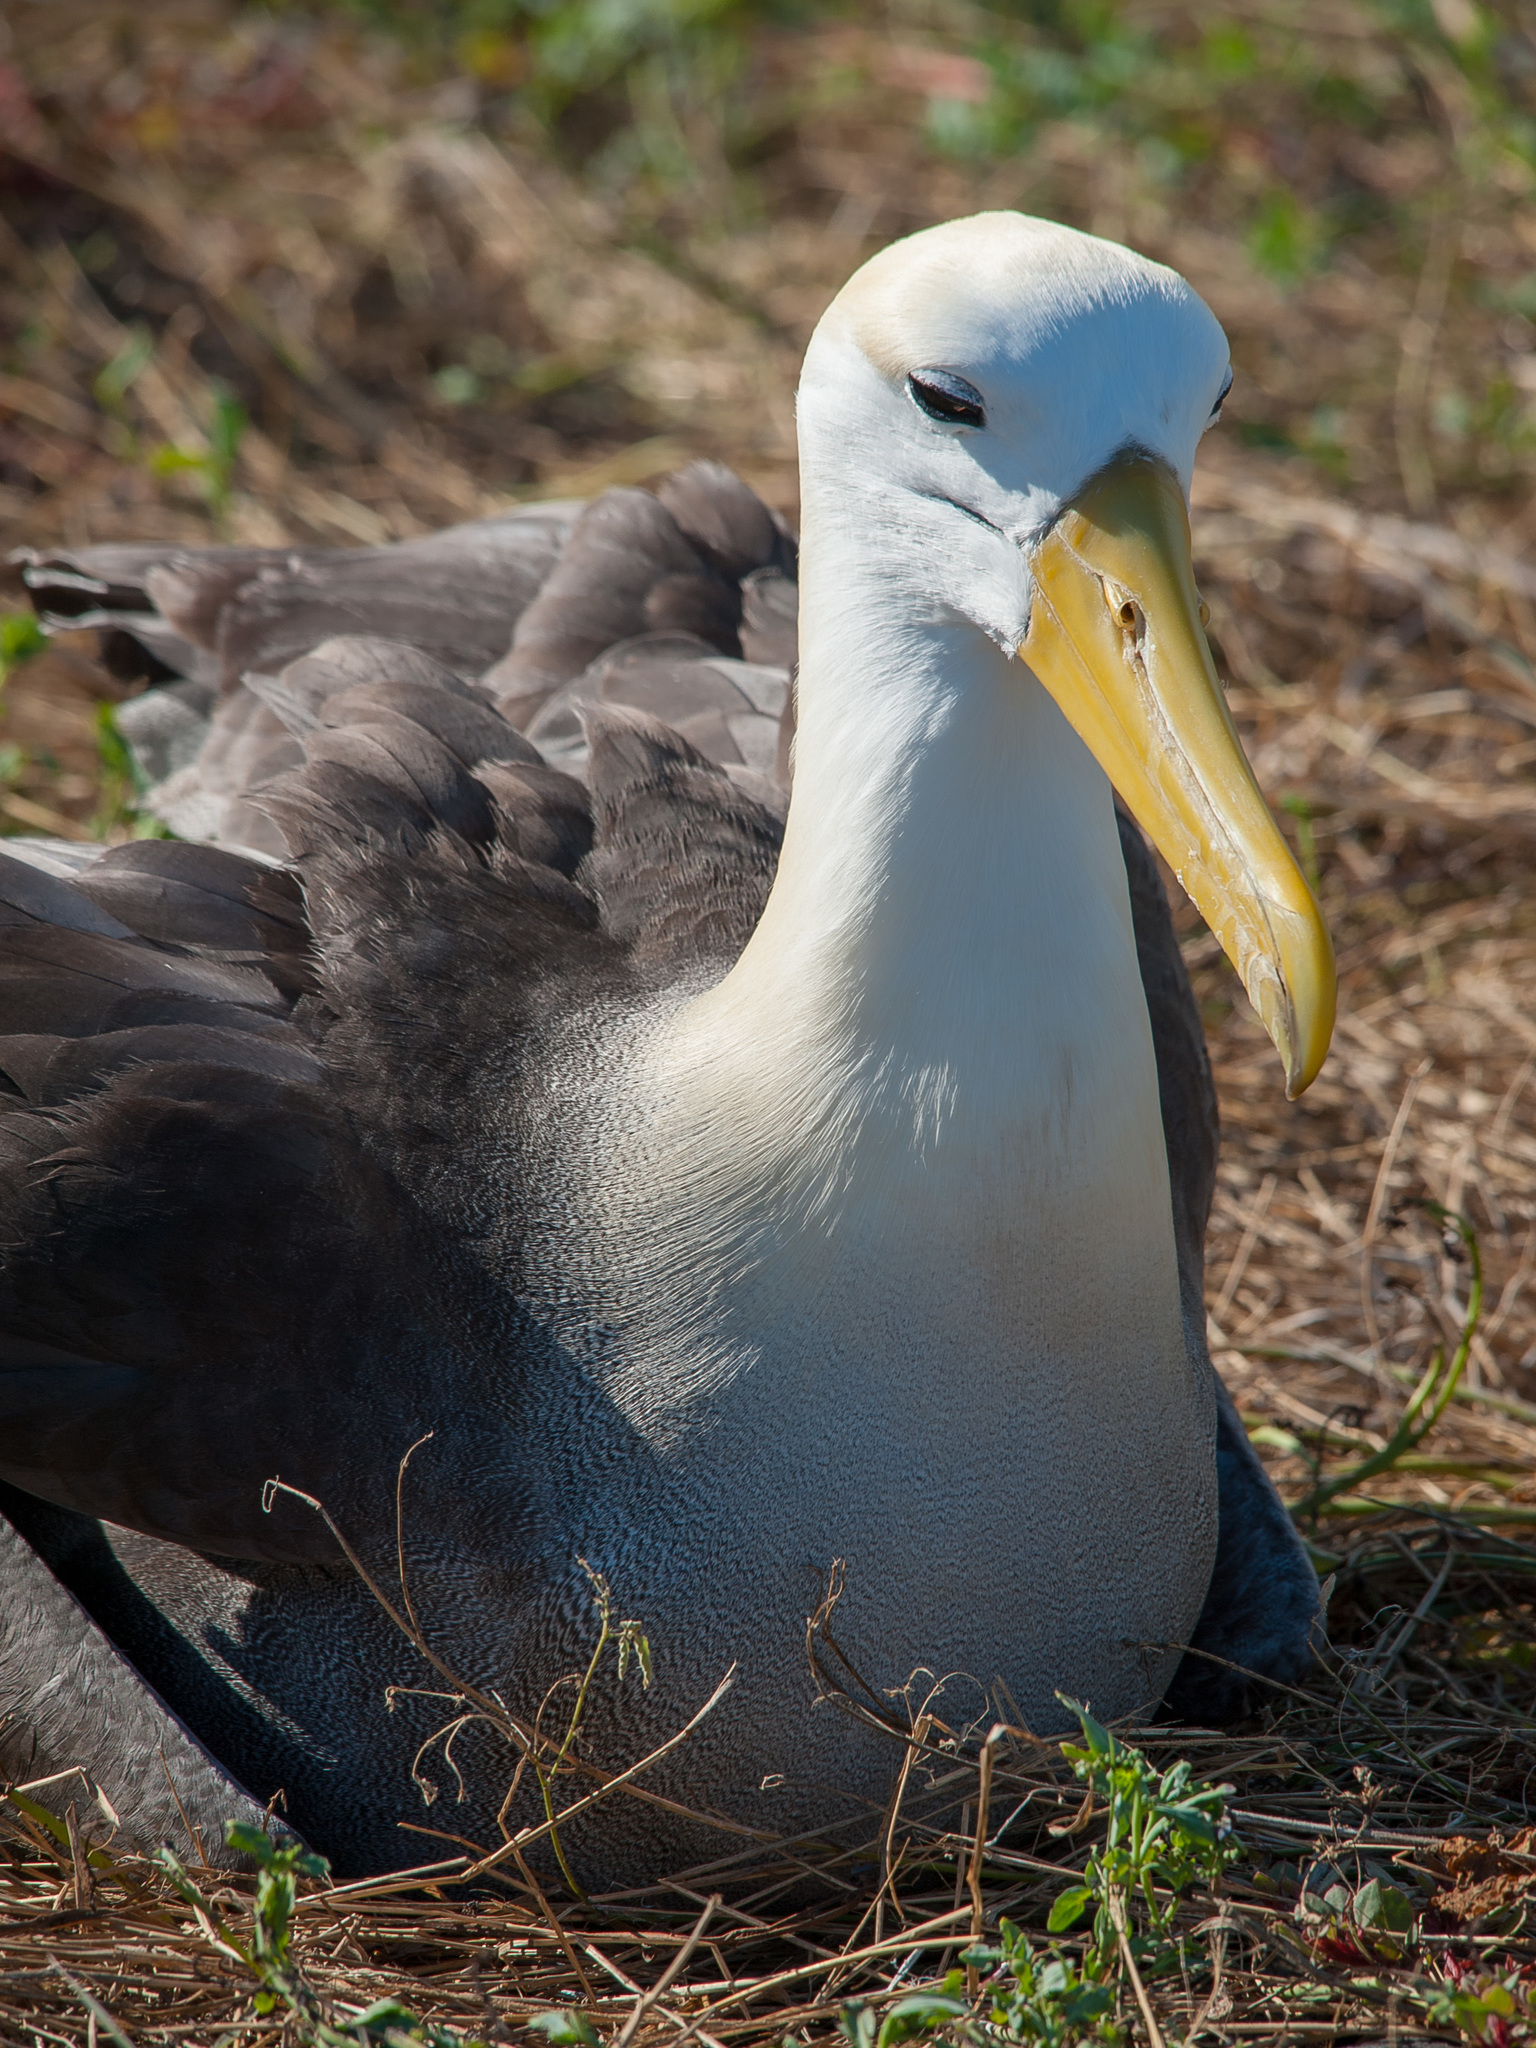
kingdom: Animalia
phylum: Chordata
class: Aves
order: Procellariiformes
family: Diomedeidae
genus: Phoebastria
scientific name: Phoebastria irrorata
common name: Waved albatross
